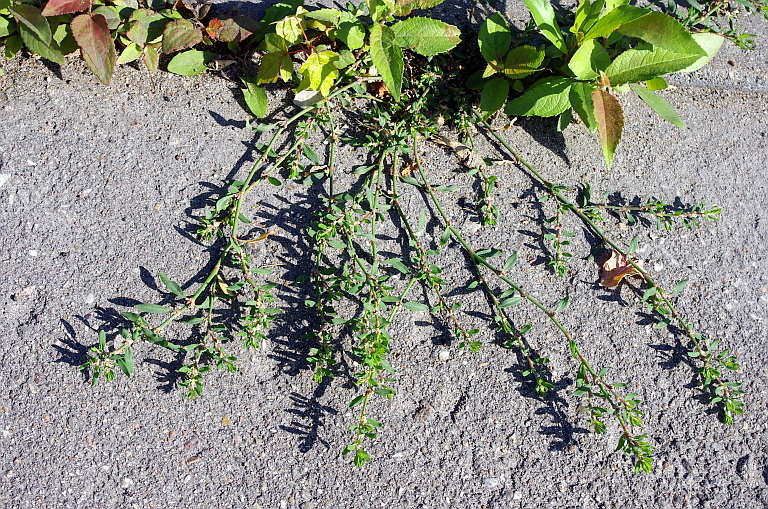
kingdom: Plantae
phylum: Tracheophyta
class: Magnoliopsida
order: Caryophyllales
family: Polygonaceae
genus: Polygonum
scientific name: Polygonum
